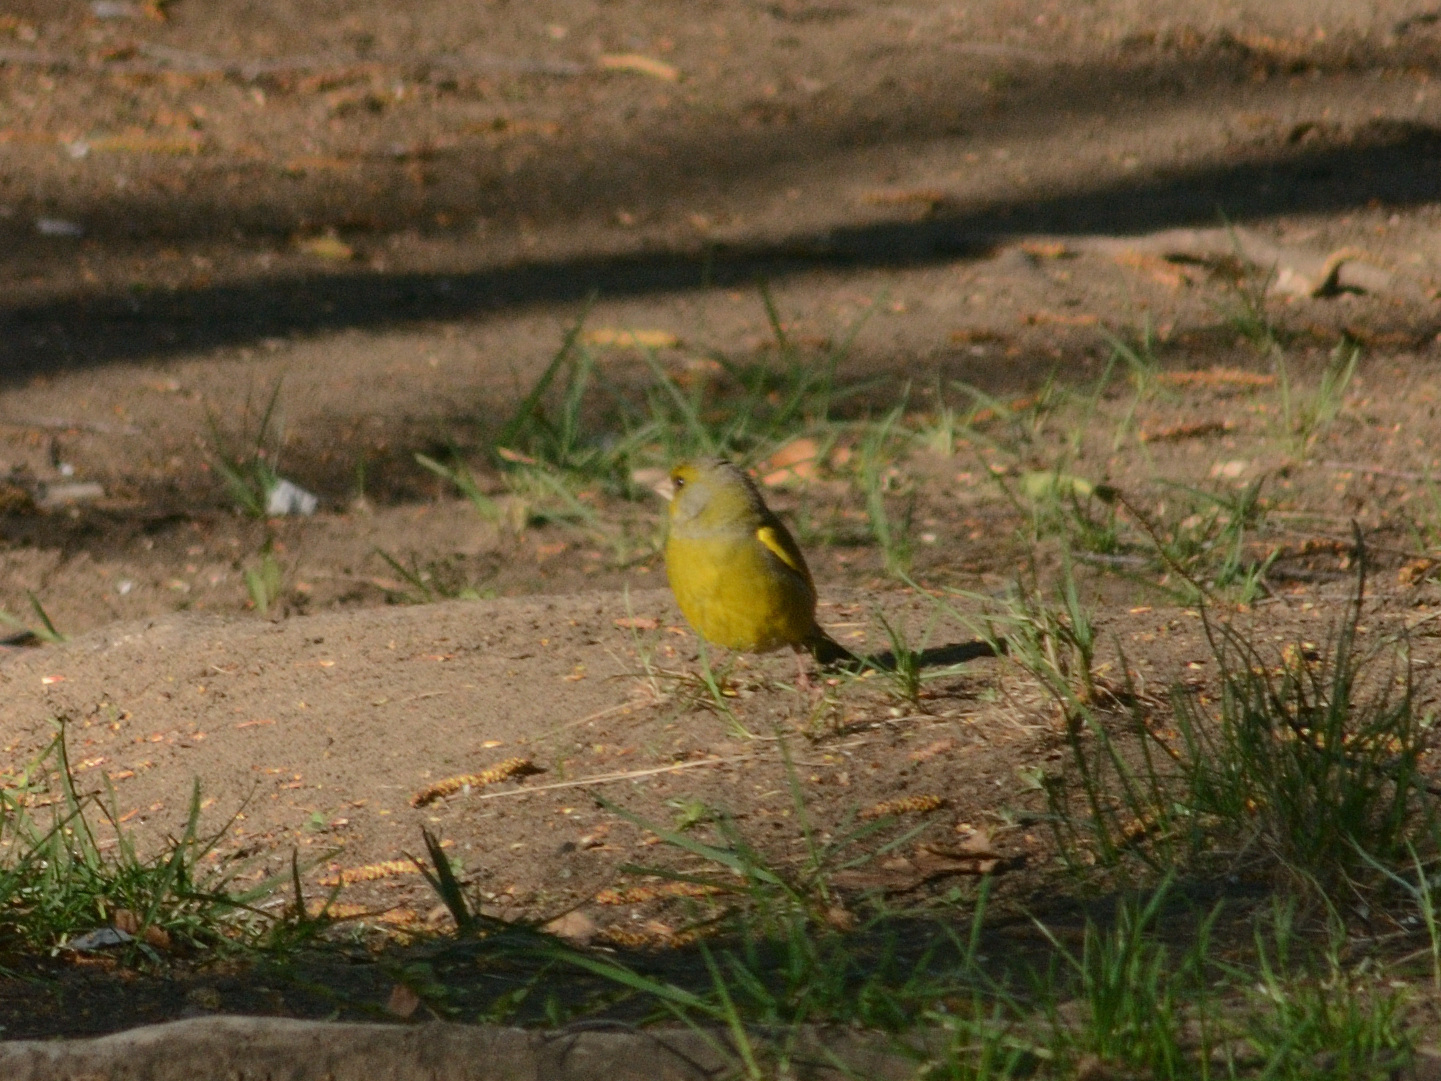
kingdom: Plantae
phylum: Tracheophyta
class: Liliopsida
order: Poales
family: Poaceae
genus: Chloris
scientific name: Chloris chloris
